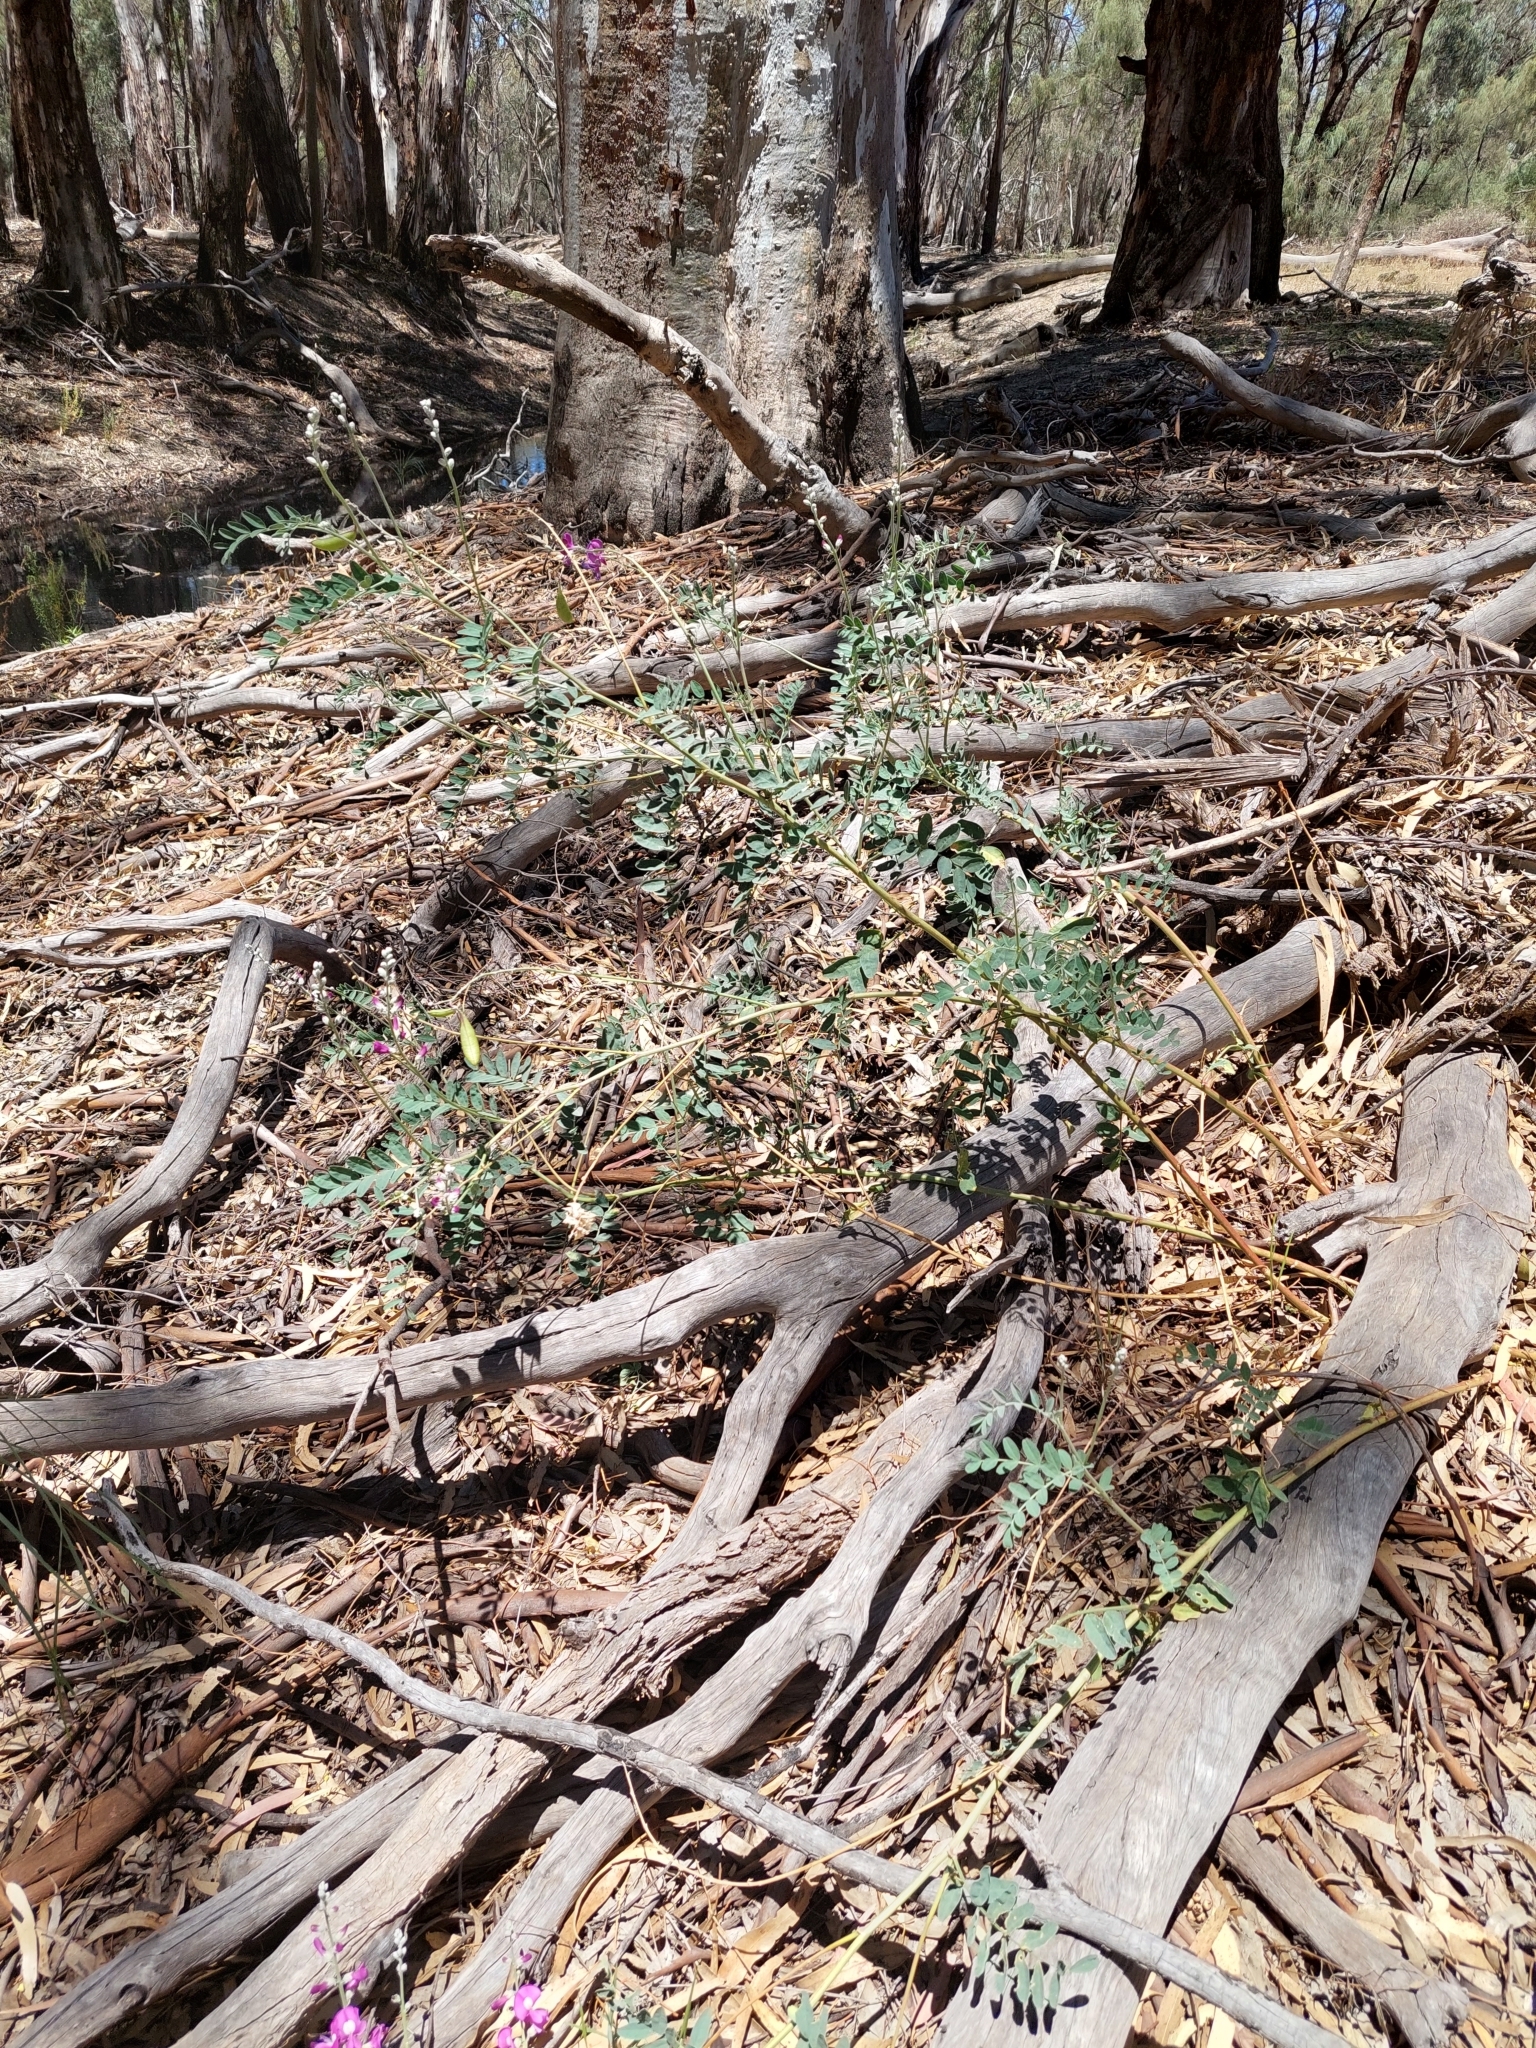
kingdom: Plantae
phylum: Tracheophyta
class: Magnoliopsida
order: Fabales
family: Fabaceae
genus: Swainsona
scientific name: Swainsona greyana
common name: Darling-pea
